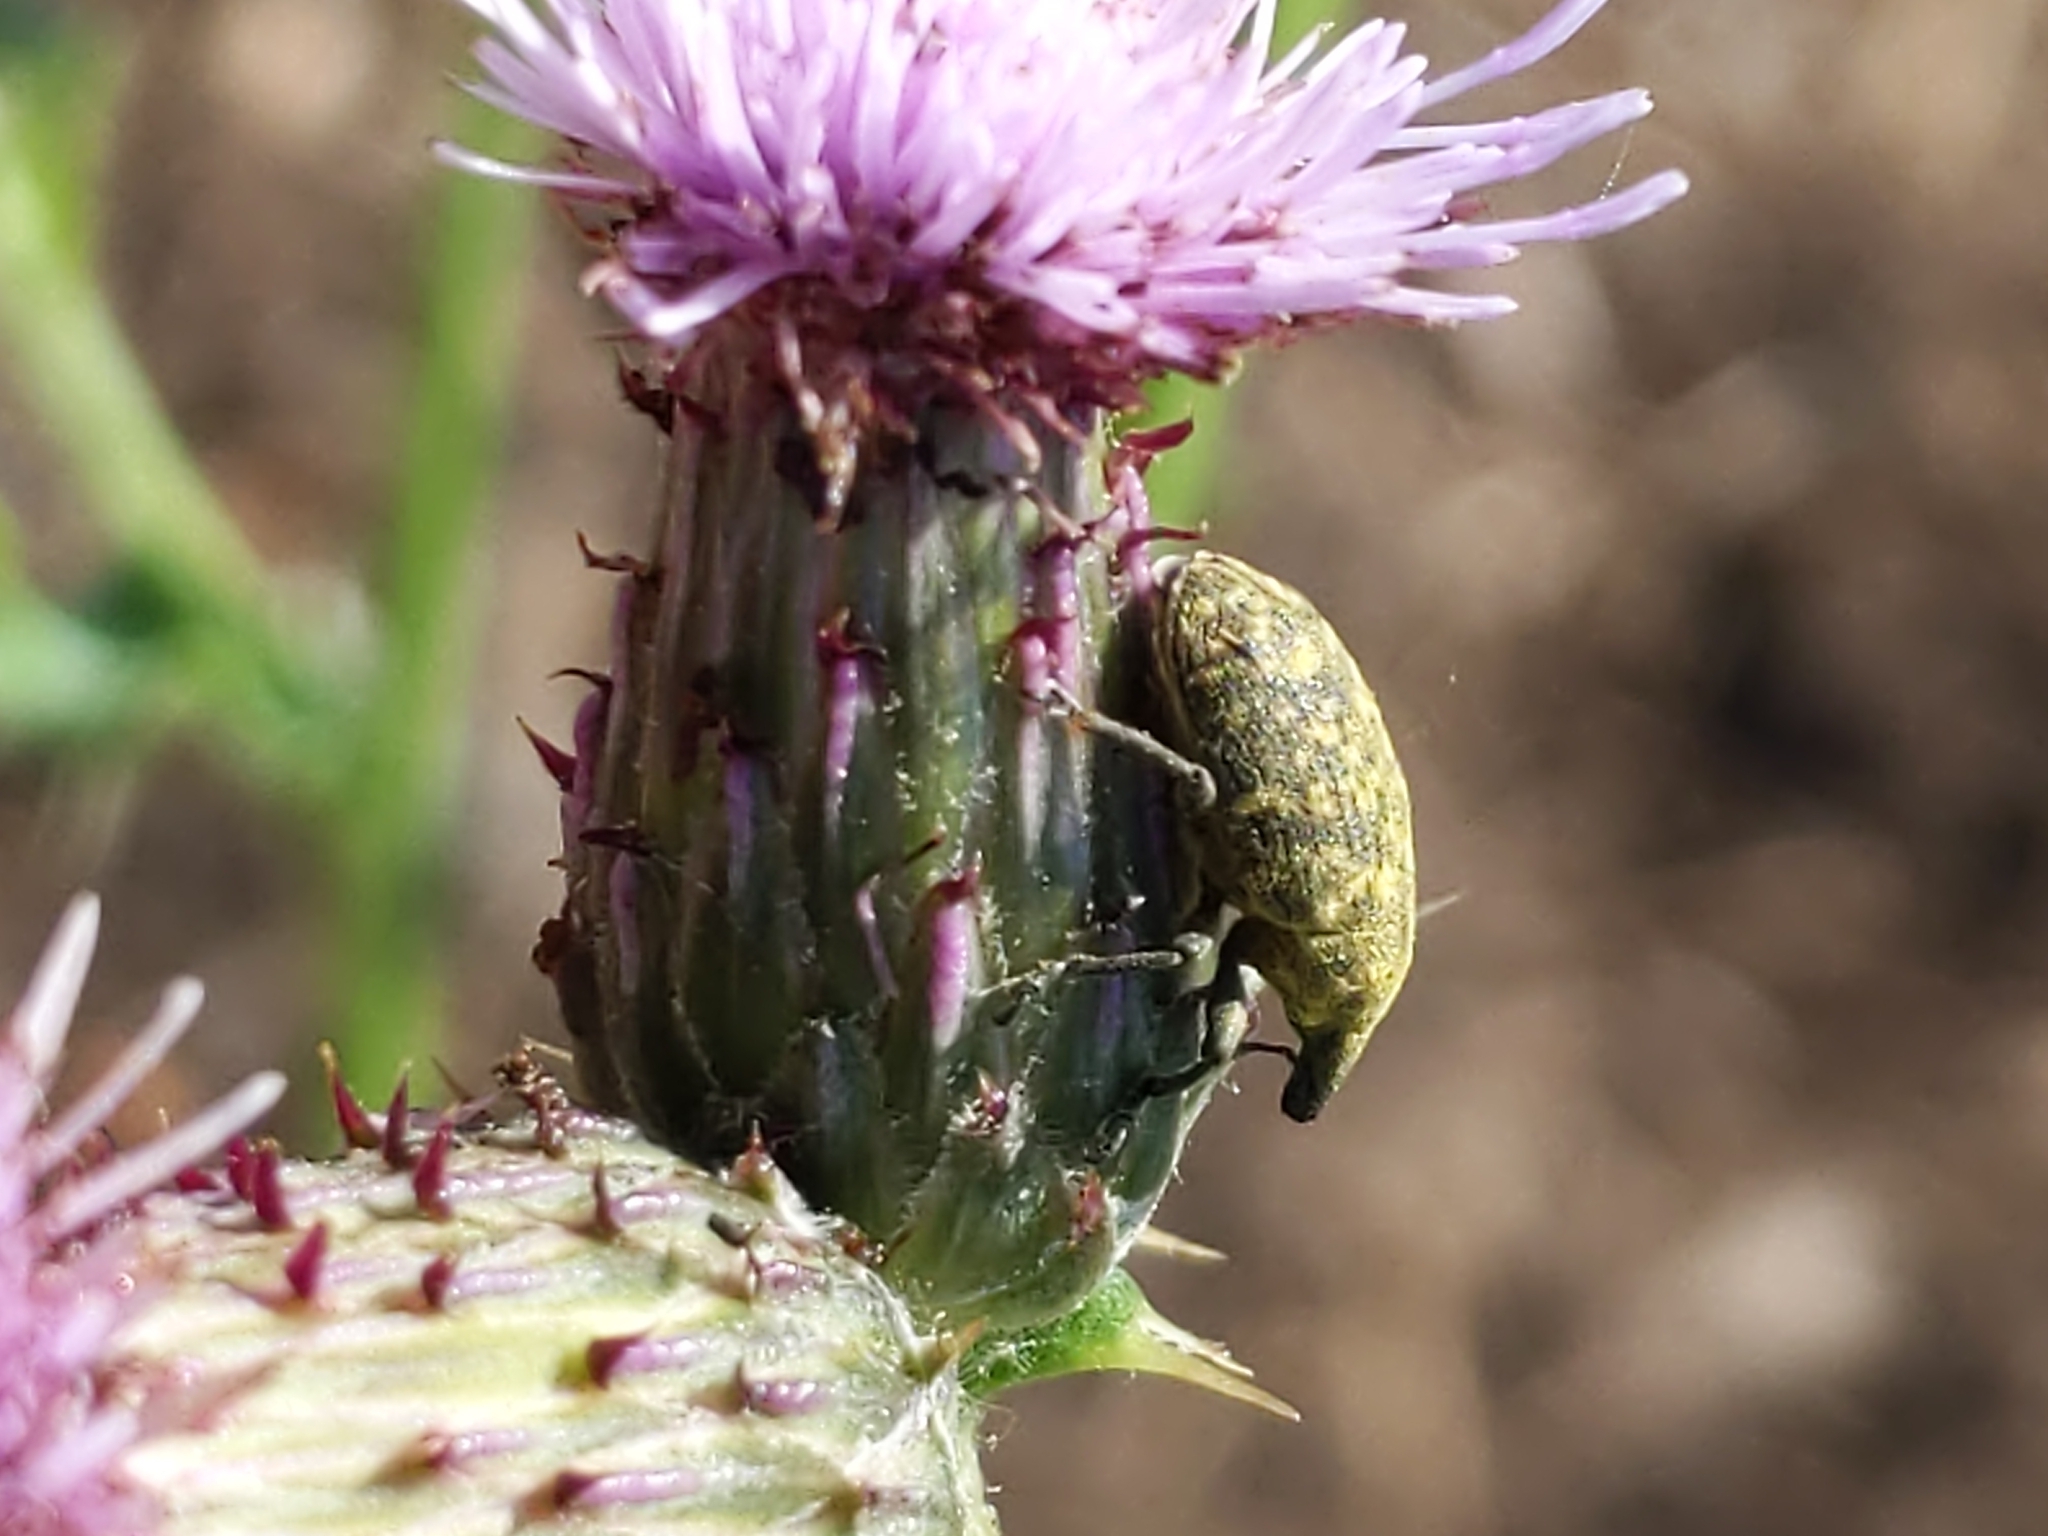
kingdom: Animalia
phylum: Arthropoda
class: Insecta
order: Coleoptera
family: Curculionidae
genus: Larinus
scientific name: Larinus turbinatus
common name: Weevil
